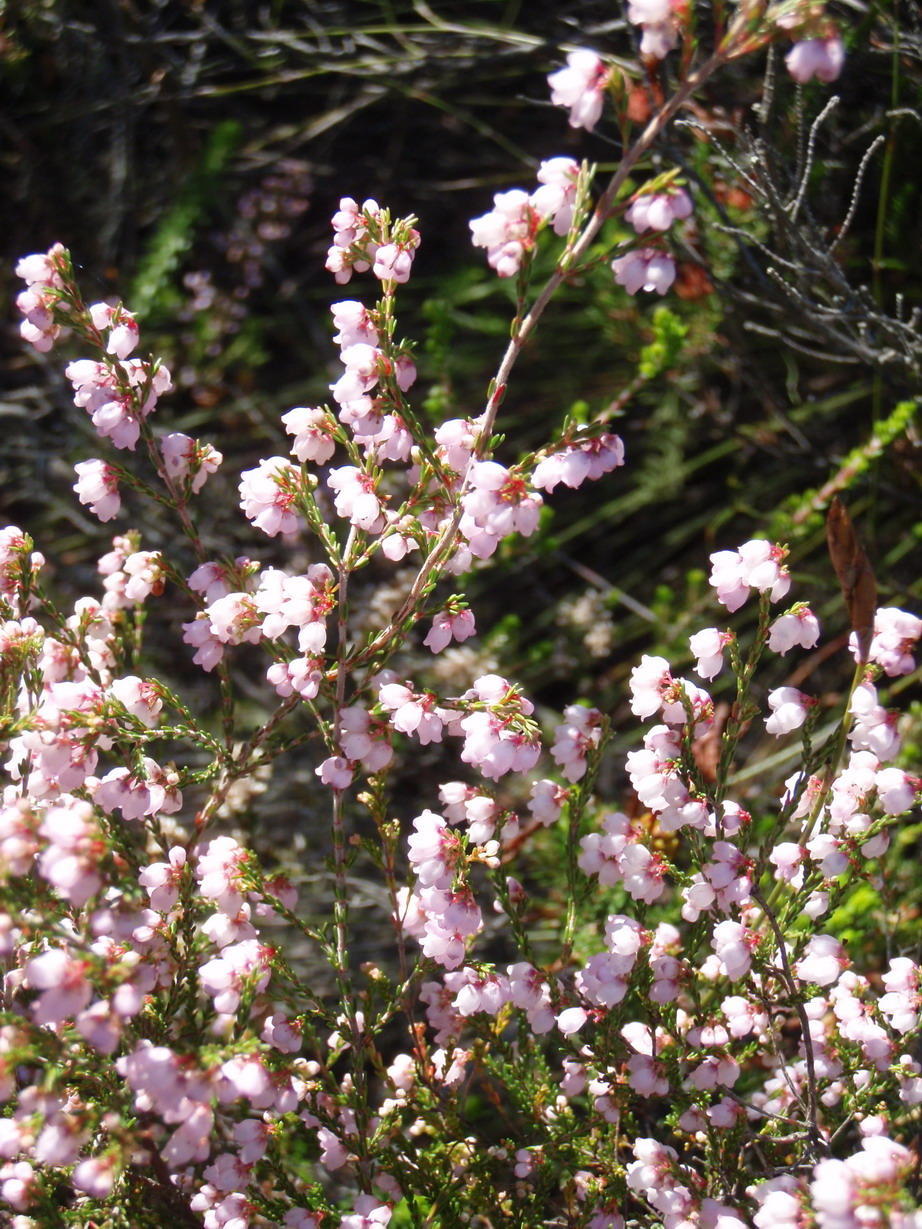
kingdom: Plantae
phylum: Tracheophyta
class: Magnoliopsida
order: Ericales
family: Ericaceae
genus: Erica
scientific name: Erica gracilis
